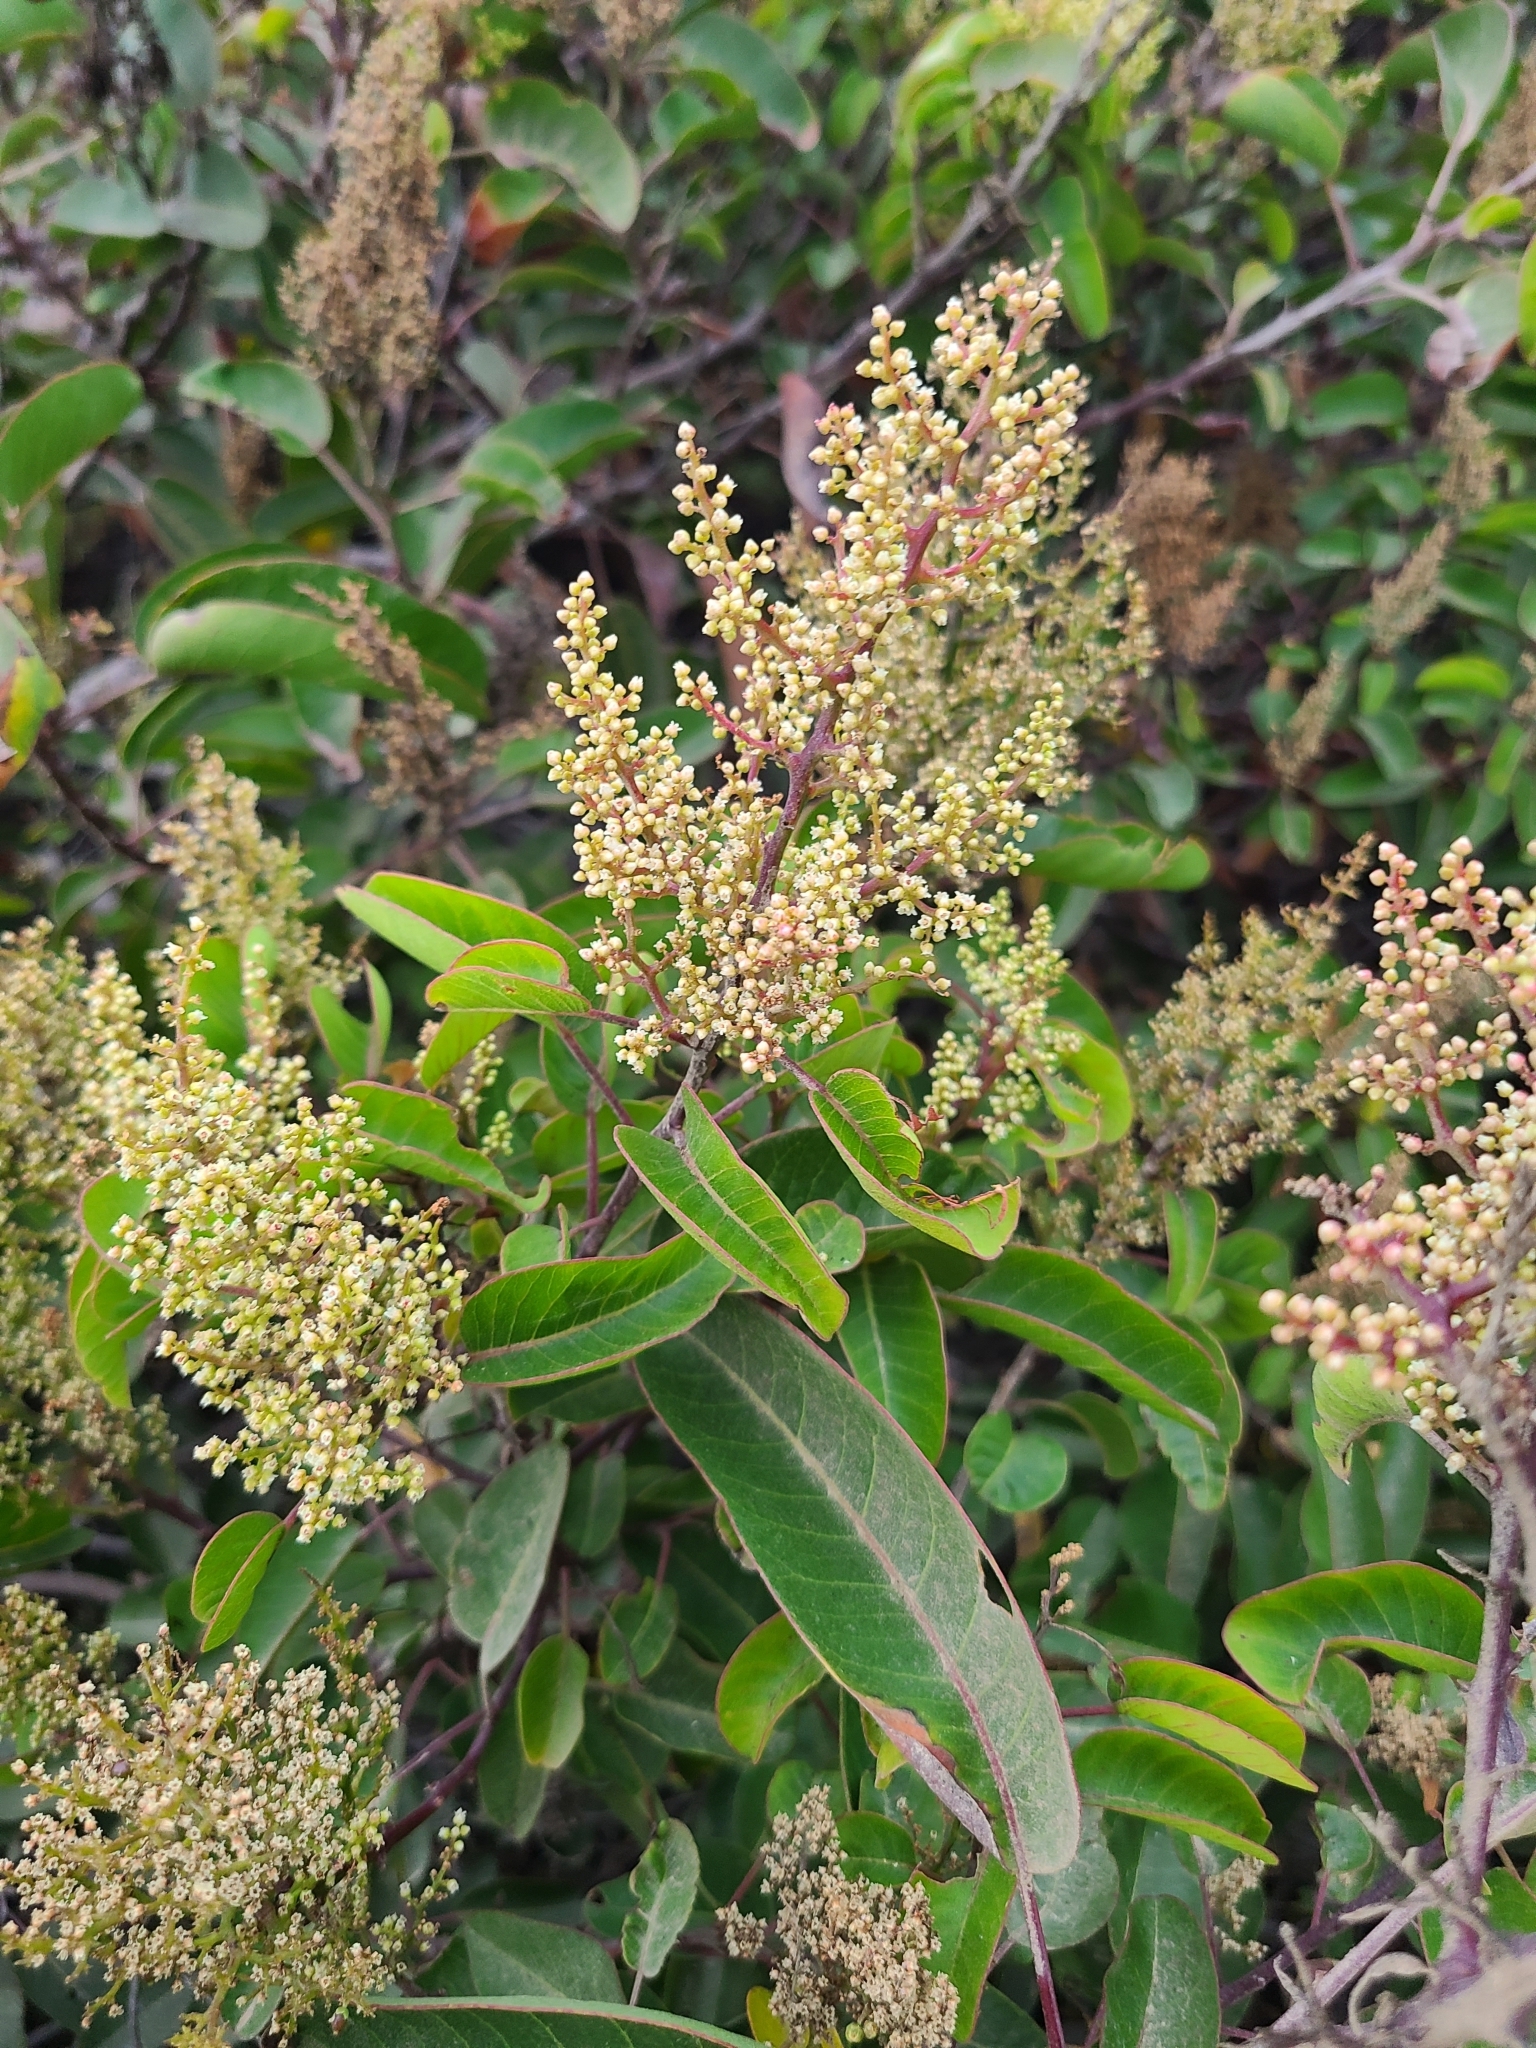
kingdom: Plantae
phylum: Tracheophyta
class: Magnoliopsida
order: Sapindales
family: Anacardiaceae
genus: Malosma
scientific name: Malosma laurina
